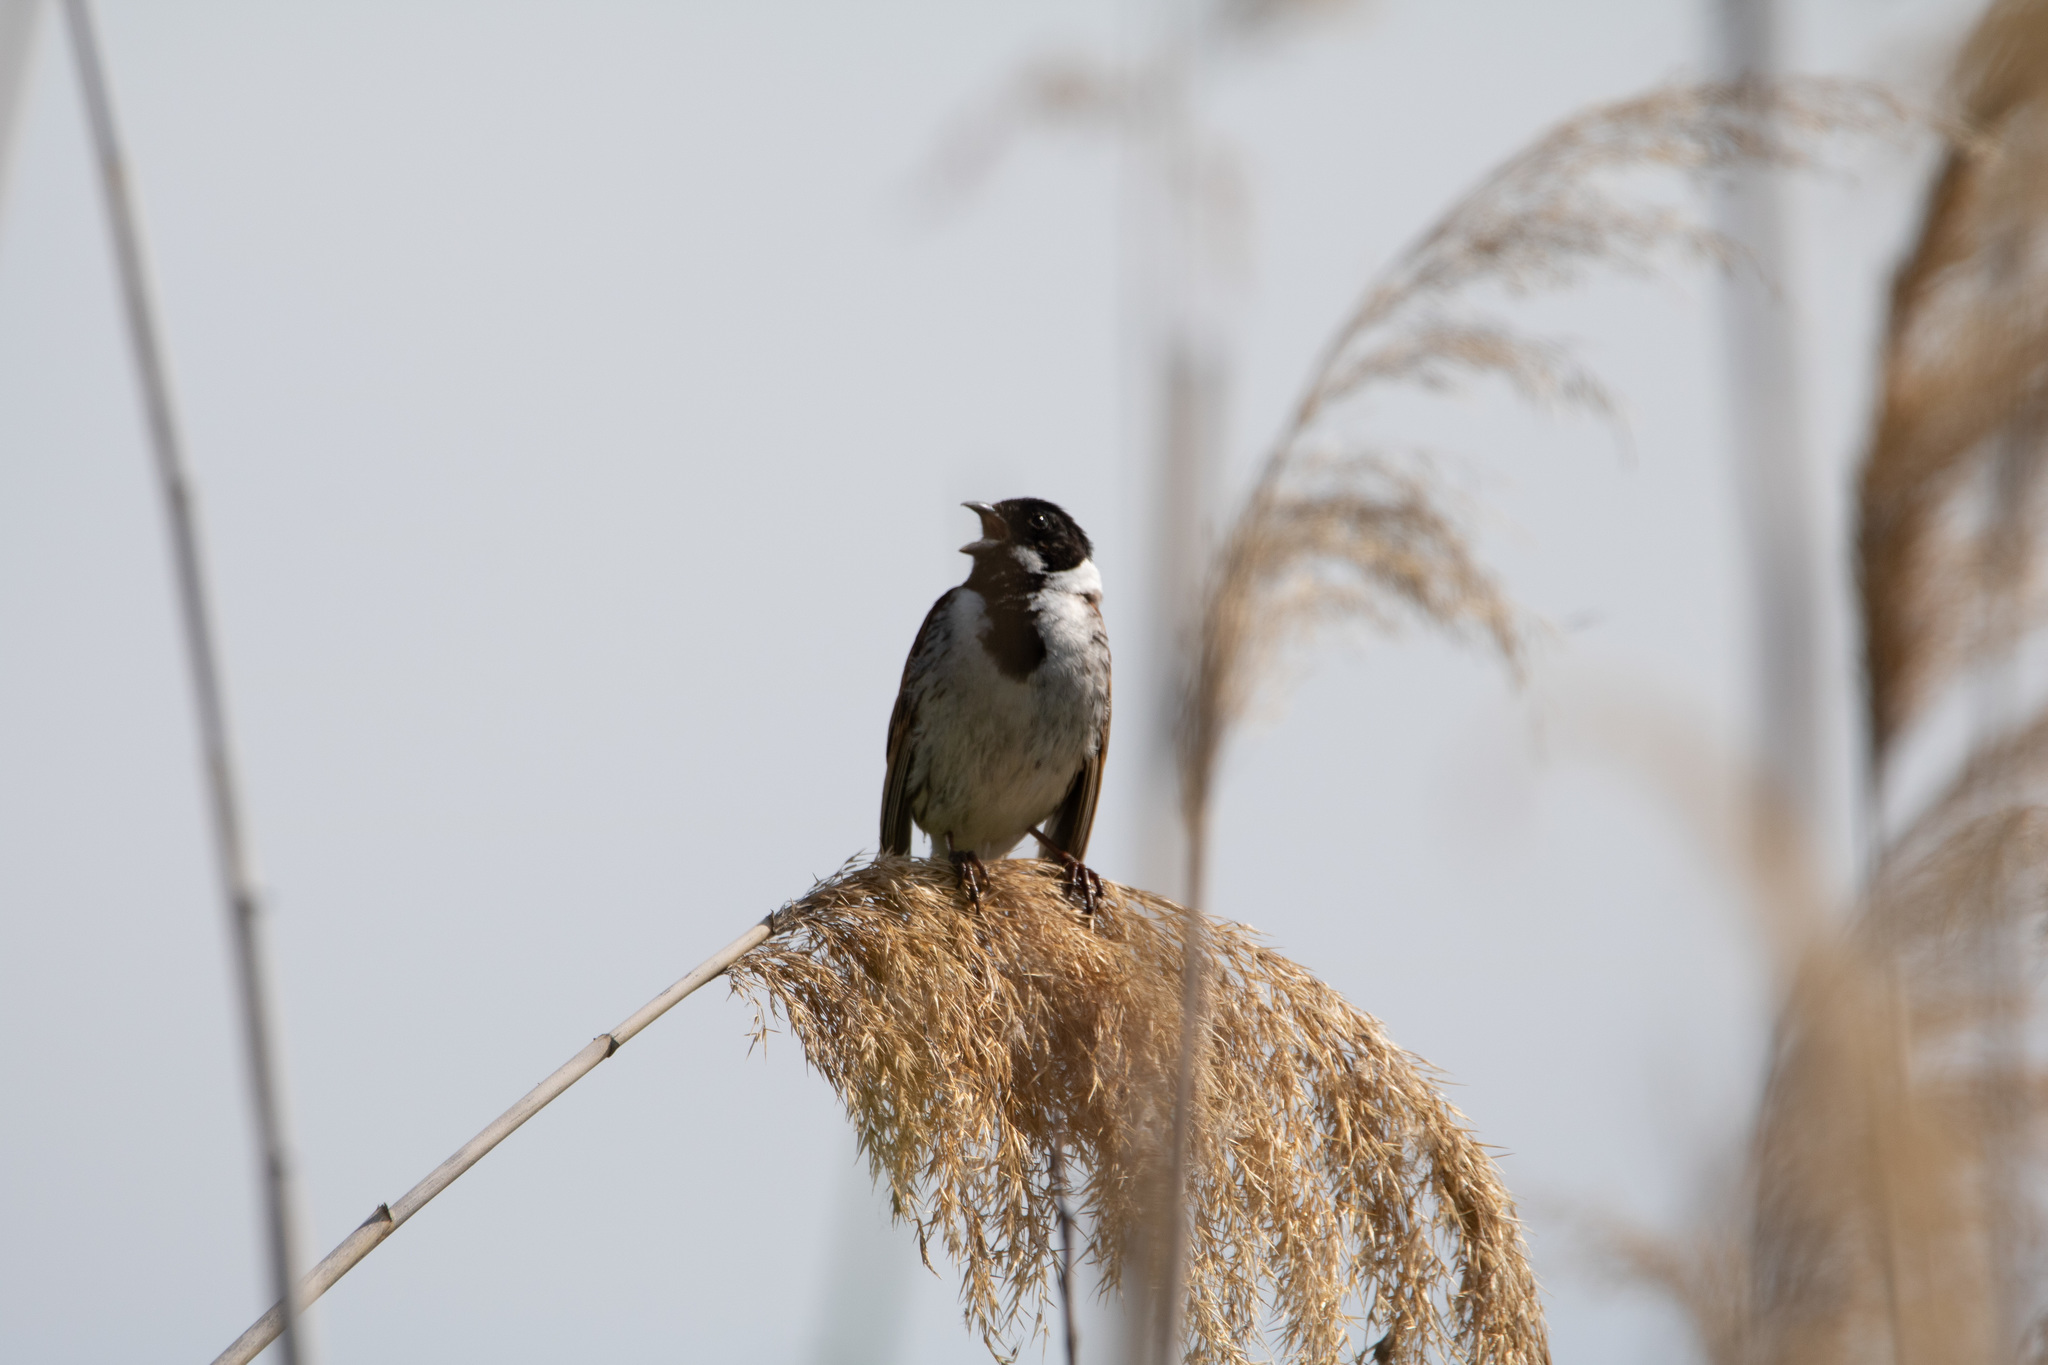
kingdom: Animalia
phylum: Chordata
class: Aves
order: Passeriformes
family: Emberizidae
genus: Emberiza
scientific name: Emberiza schoeniclus
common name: Reed bunting
